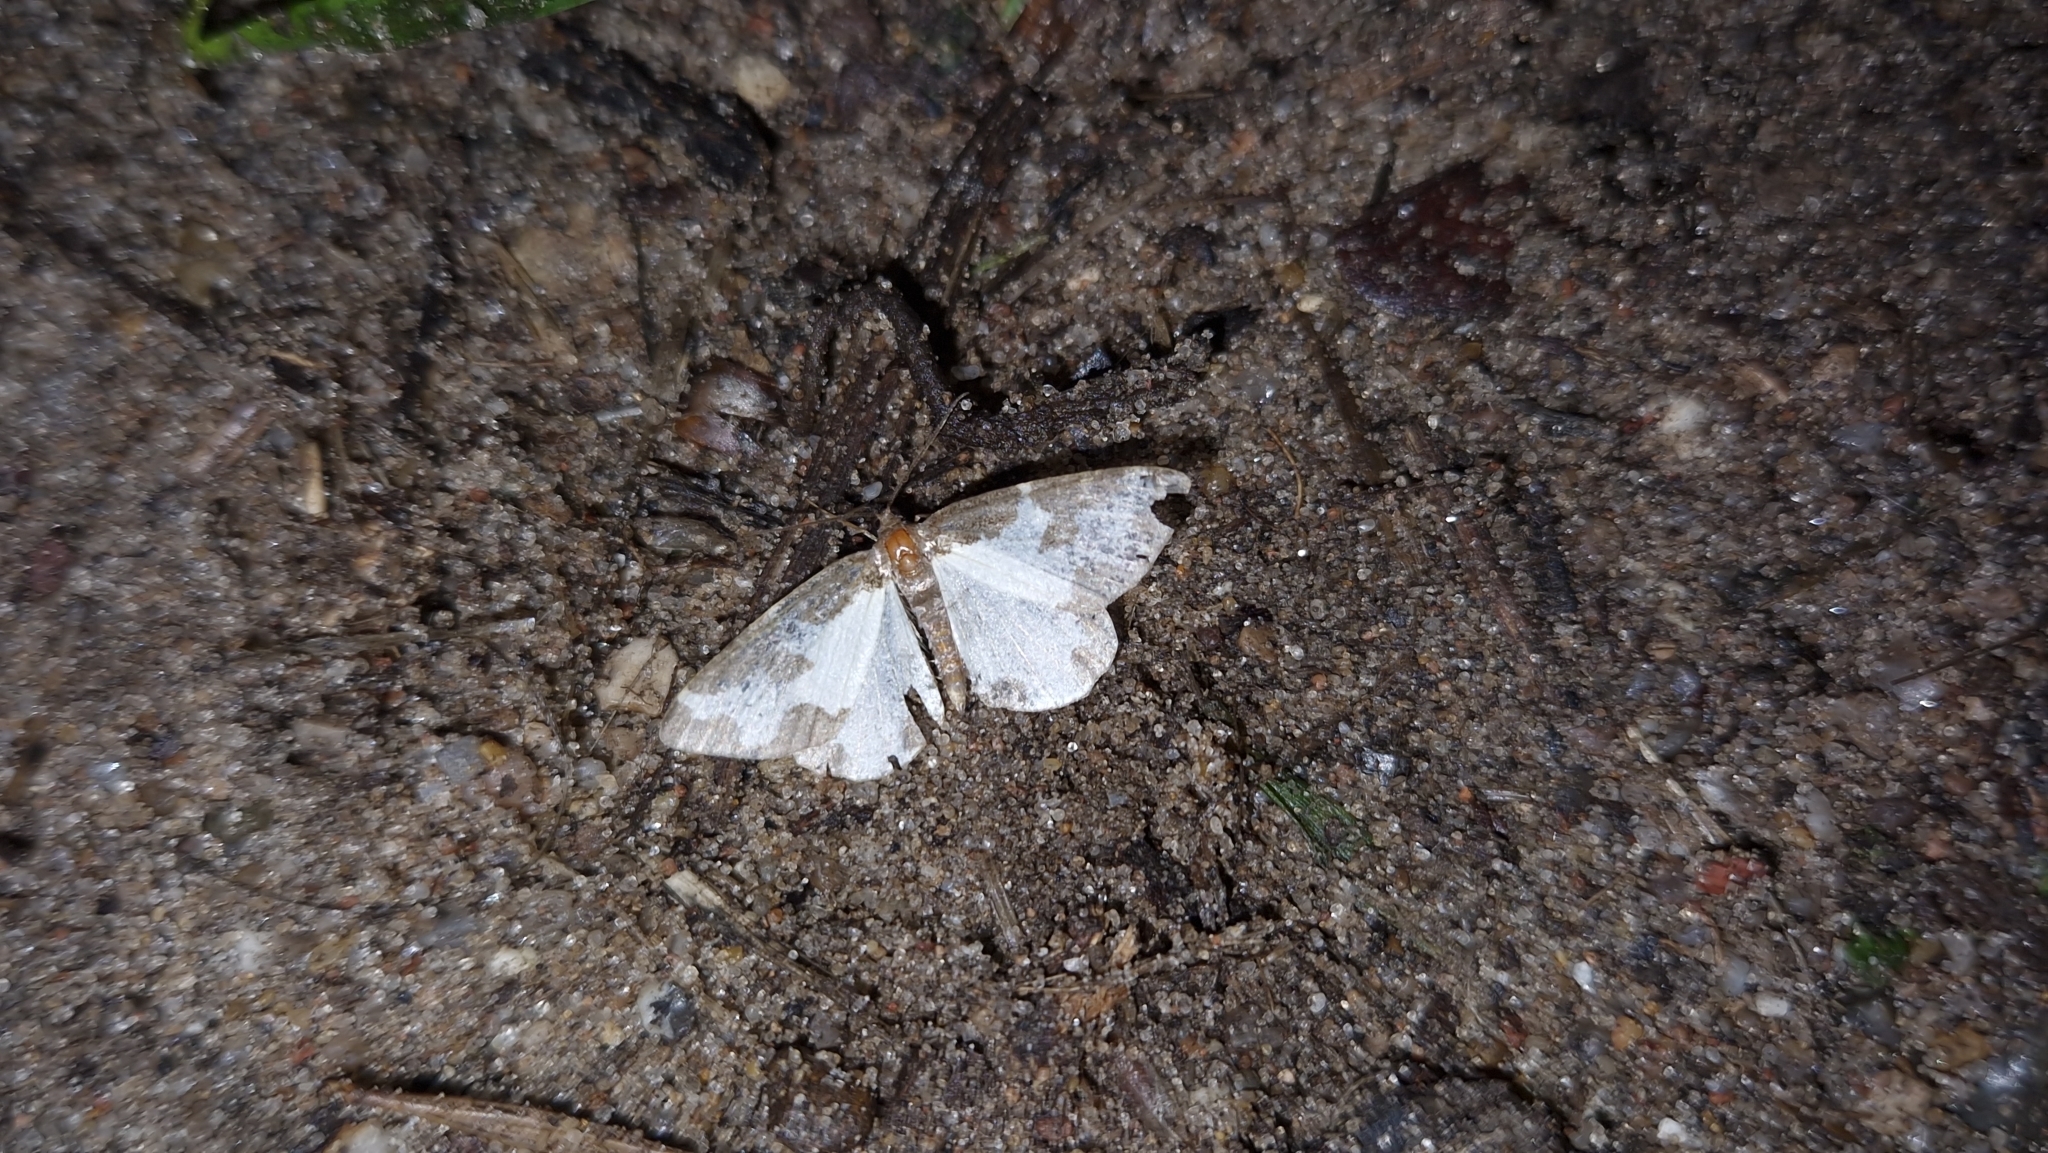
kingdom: Animalia
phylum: Arthropoda
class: Insecta
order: Lepidoptera
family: Geometridae
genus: Lomaspilis
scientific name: Lomaspilis marginata
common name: Clouded border
